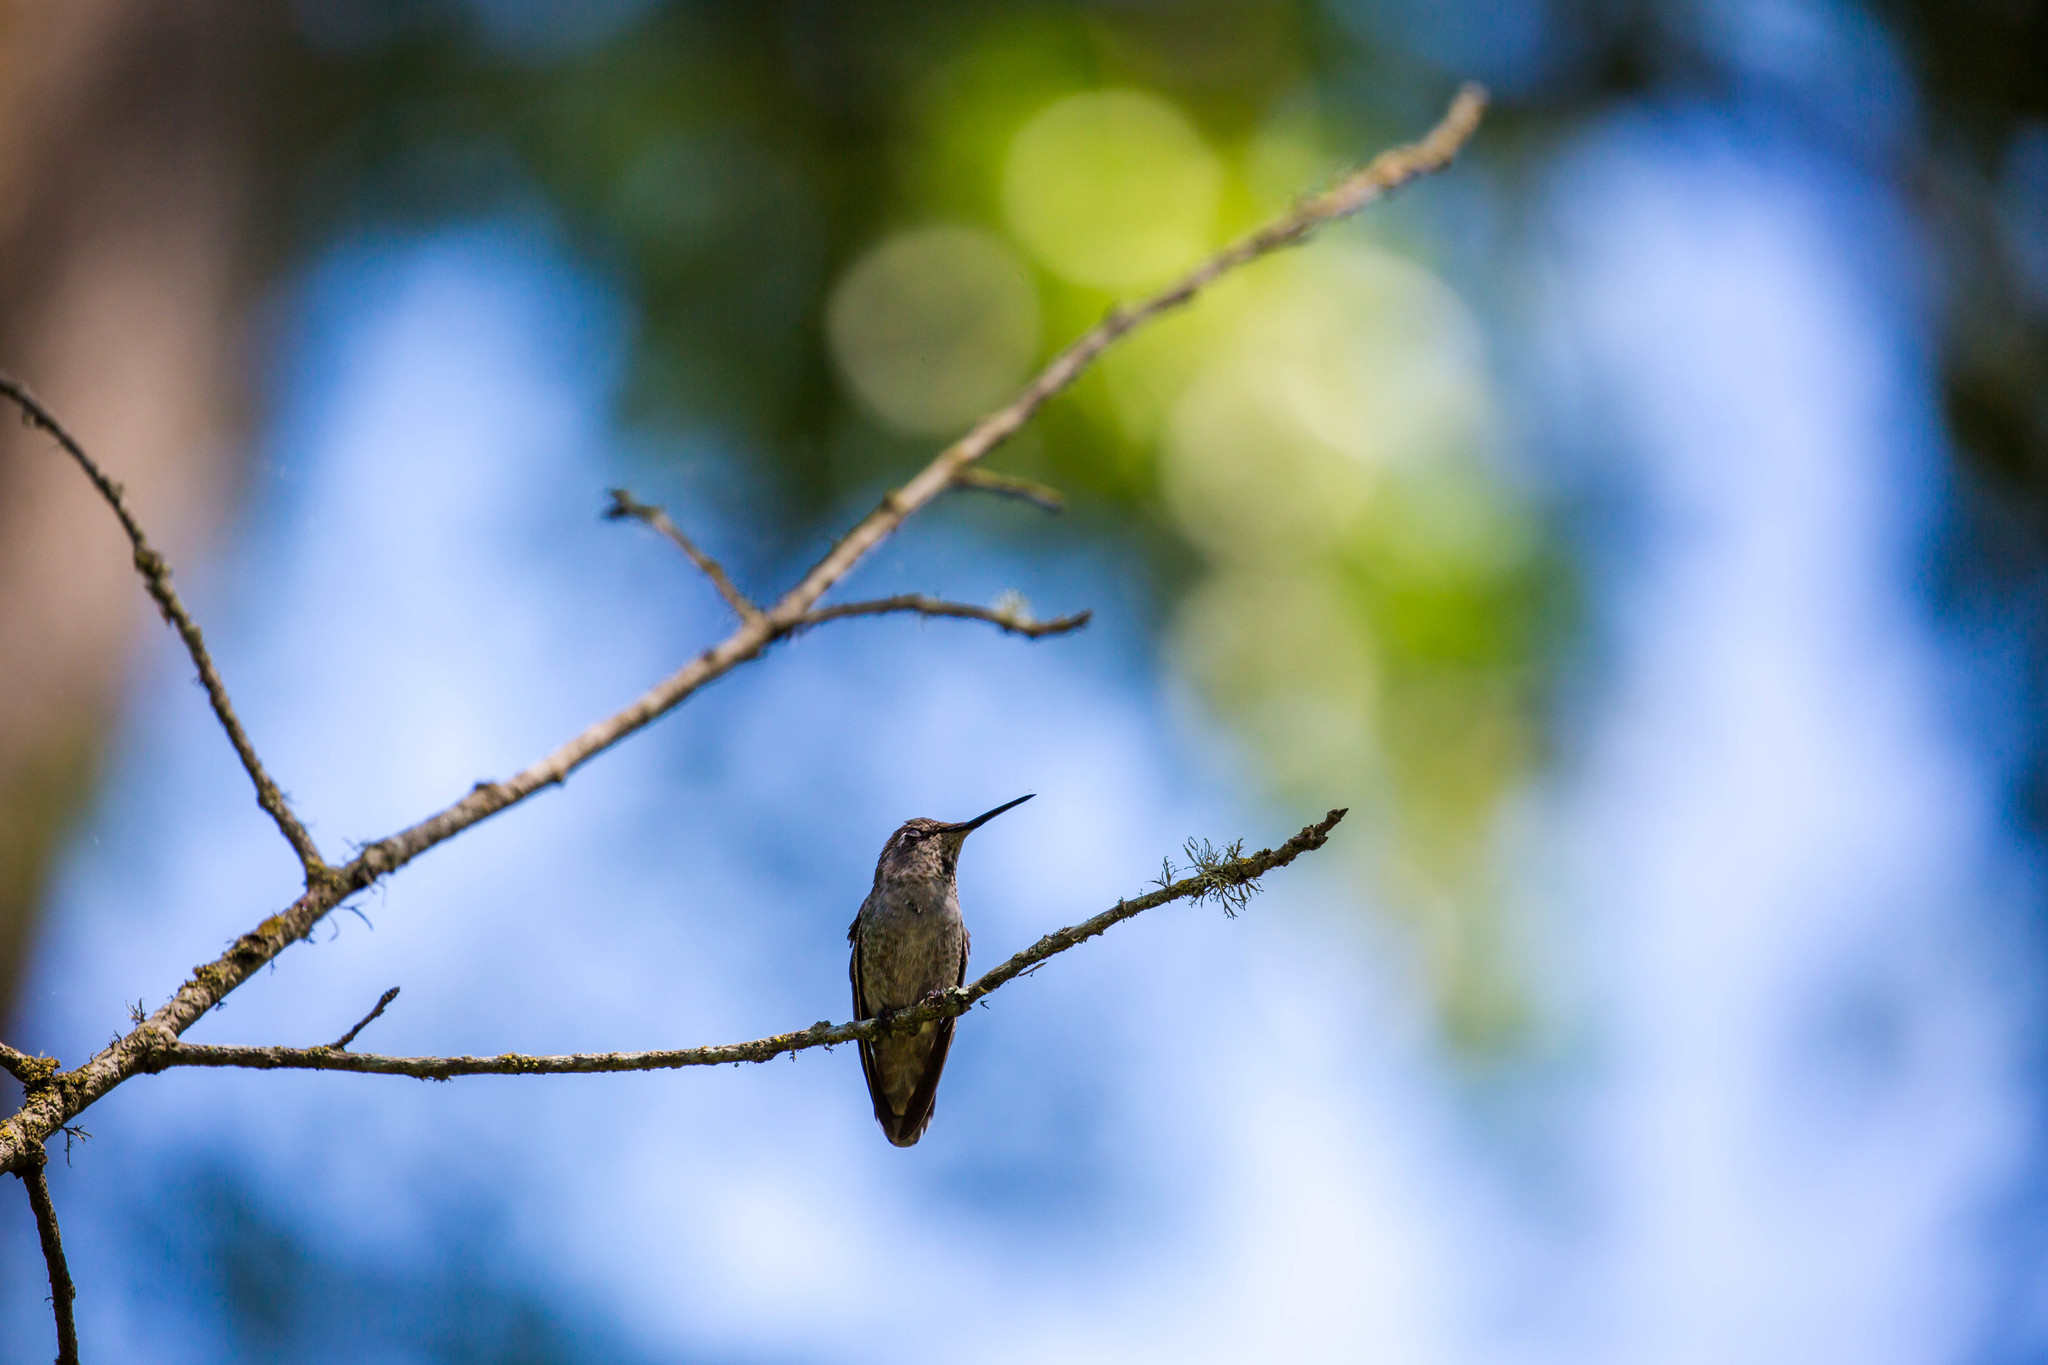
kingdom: Animalia
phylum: Chordata
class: Aves
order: Apodiformes
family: Trochilidae
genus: Calypte
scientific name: Calypte anna
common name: Anna's hummingbird
